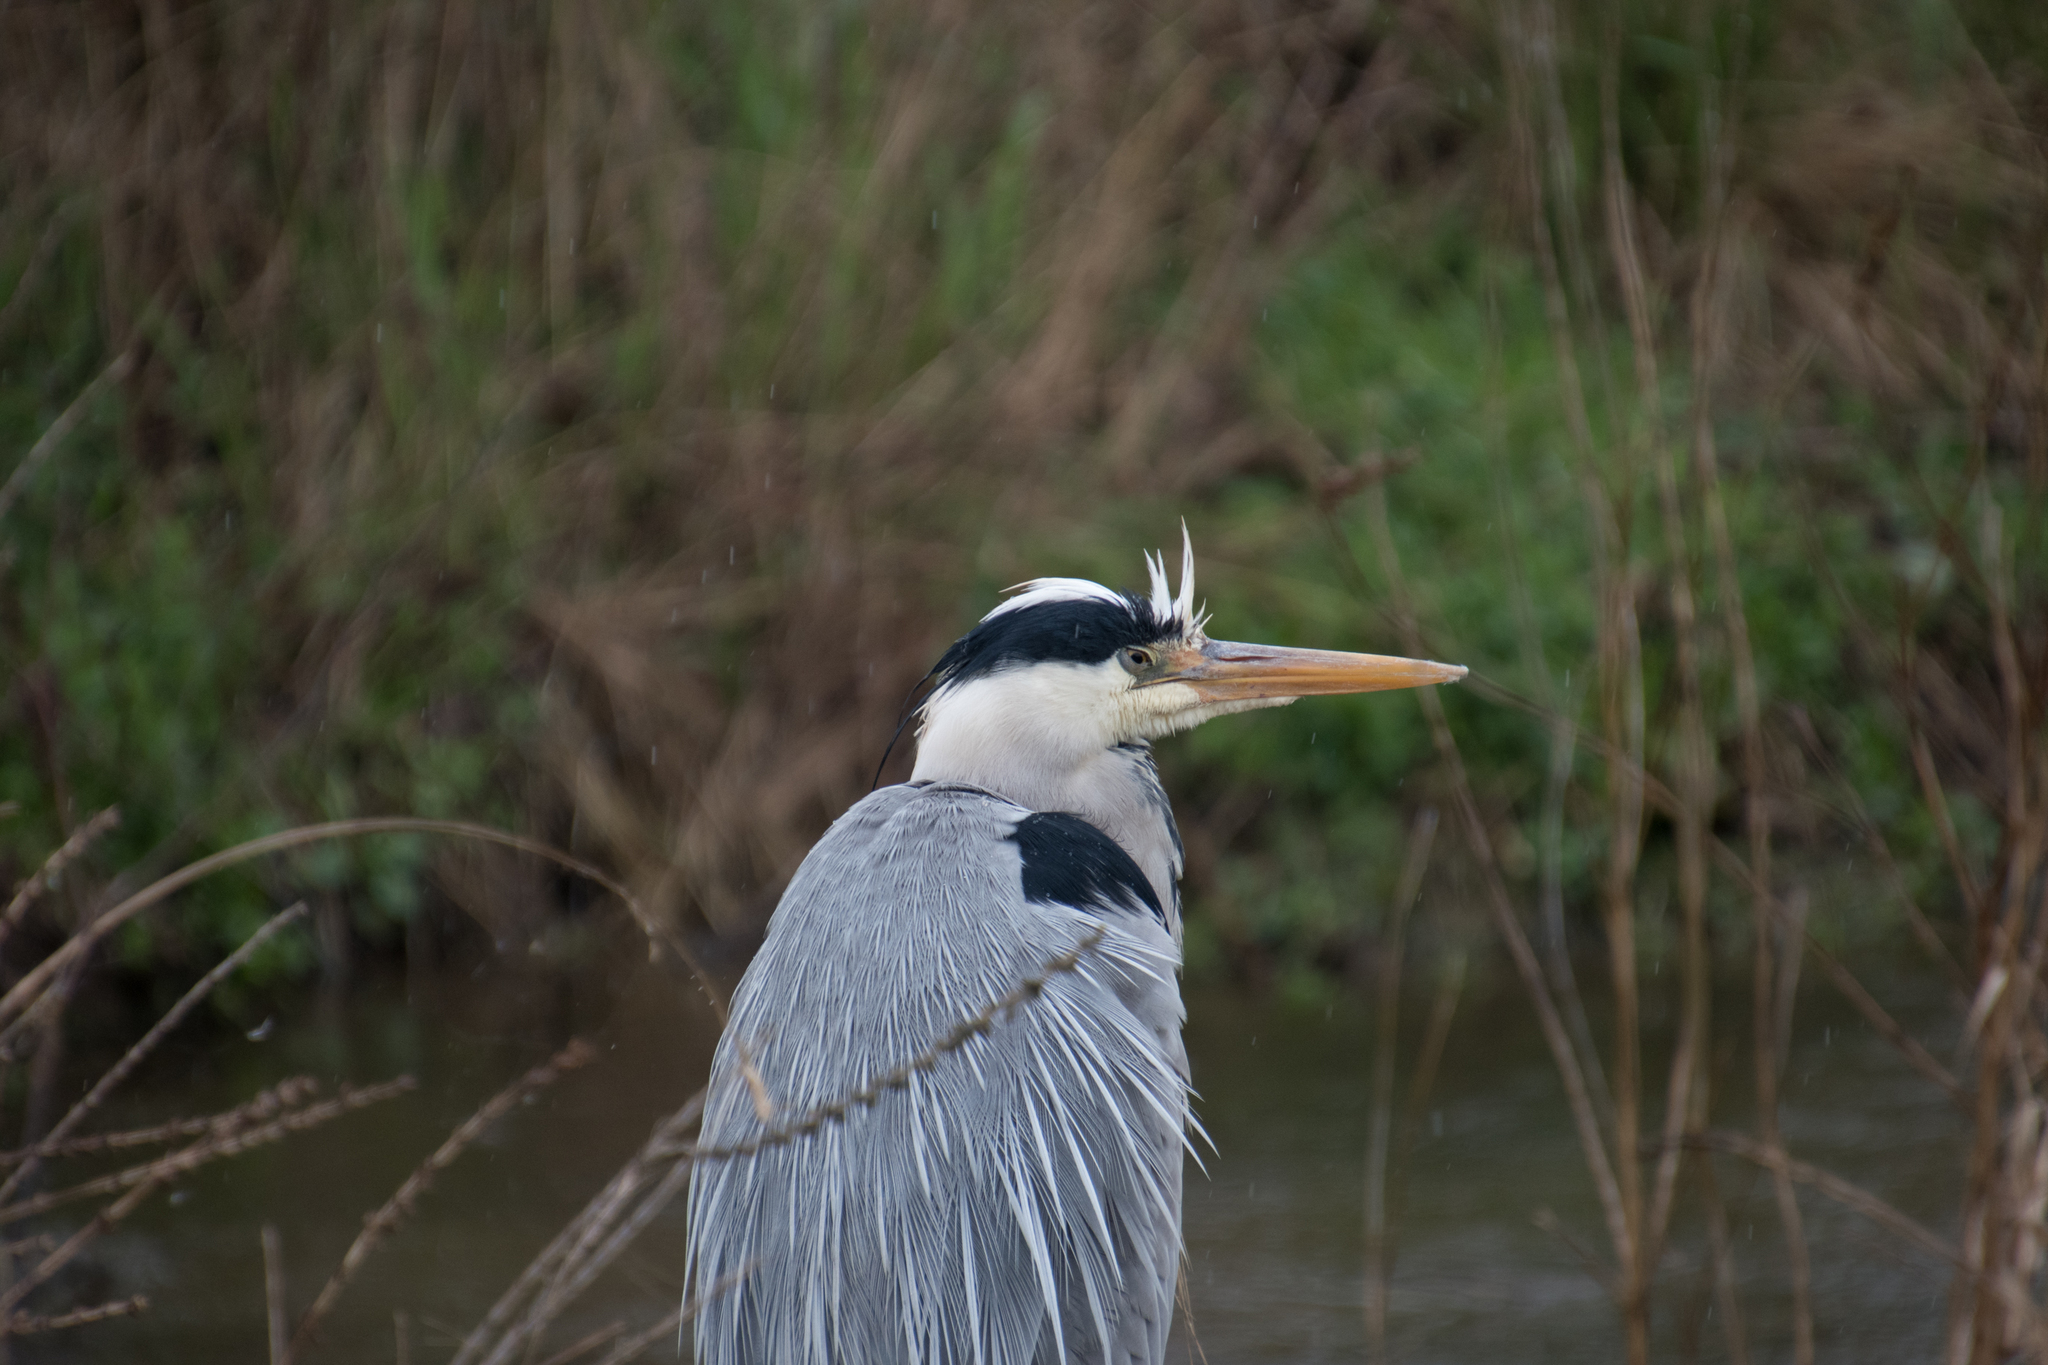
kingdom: Animalia
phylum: Chordata
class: Aves
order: Pelecaniformes
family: Ardeidae
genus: Ardea
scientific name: Ardea cinerea
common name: Grey heron
